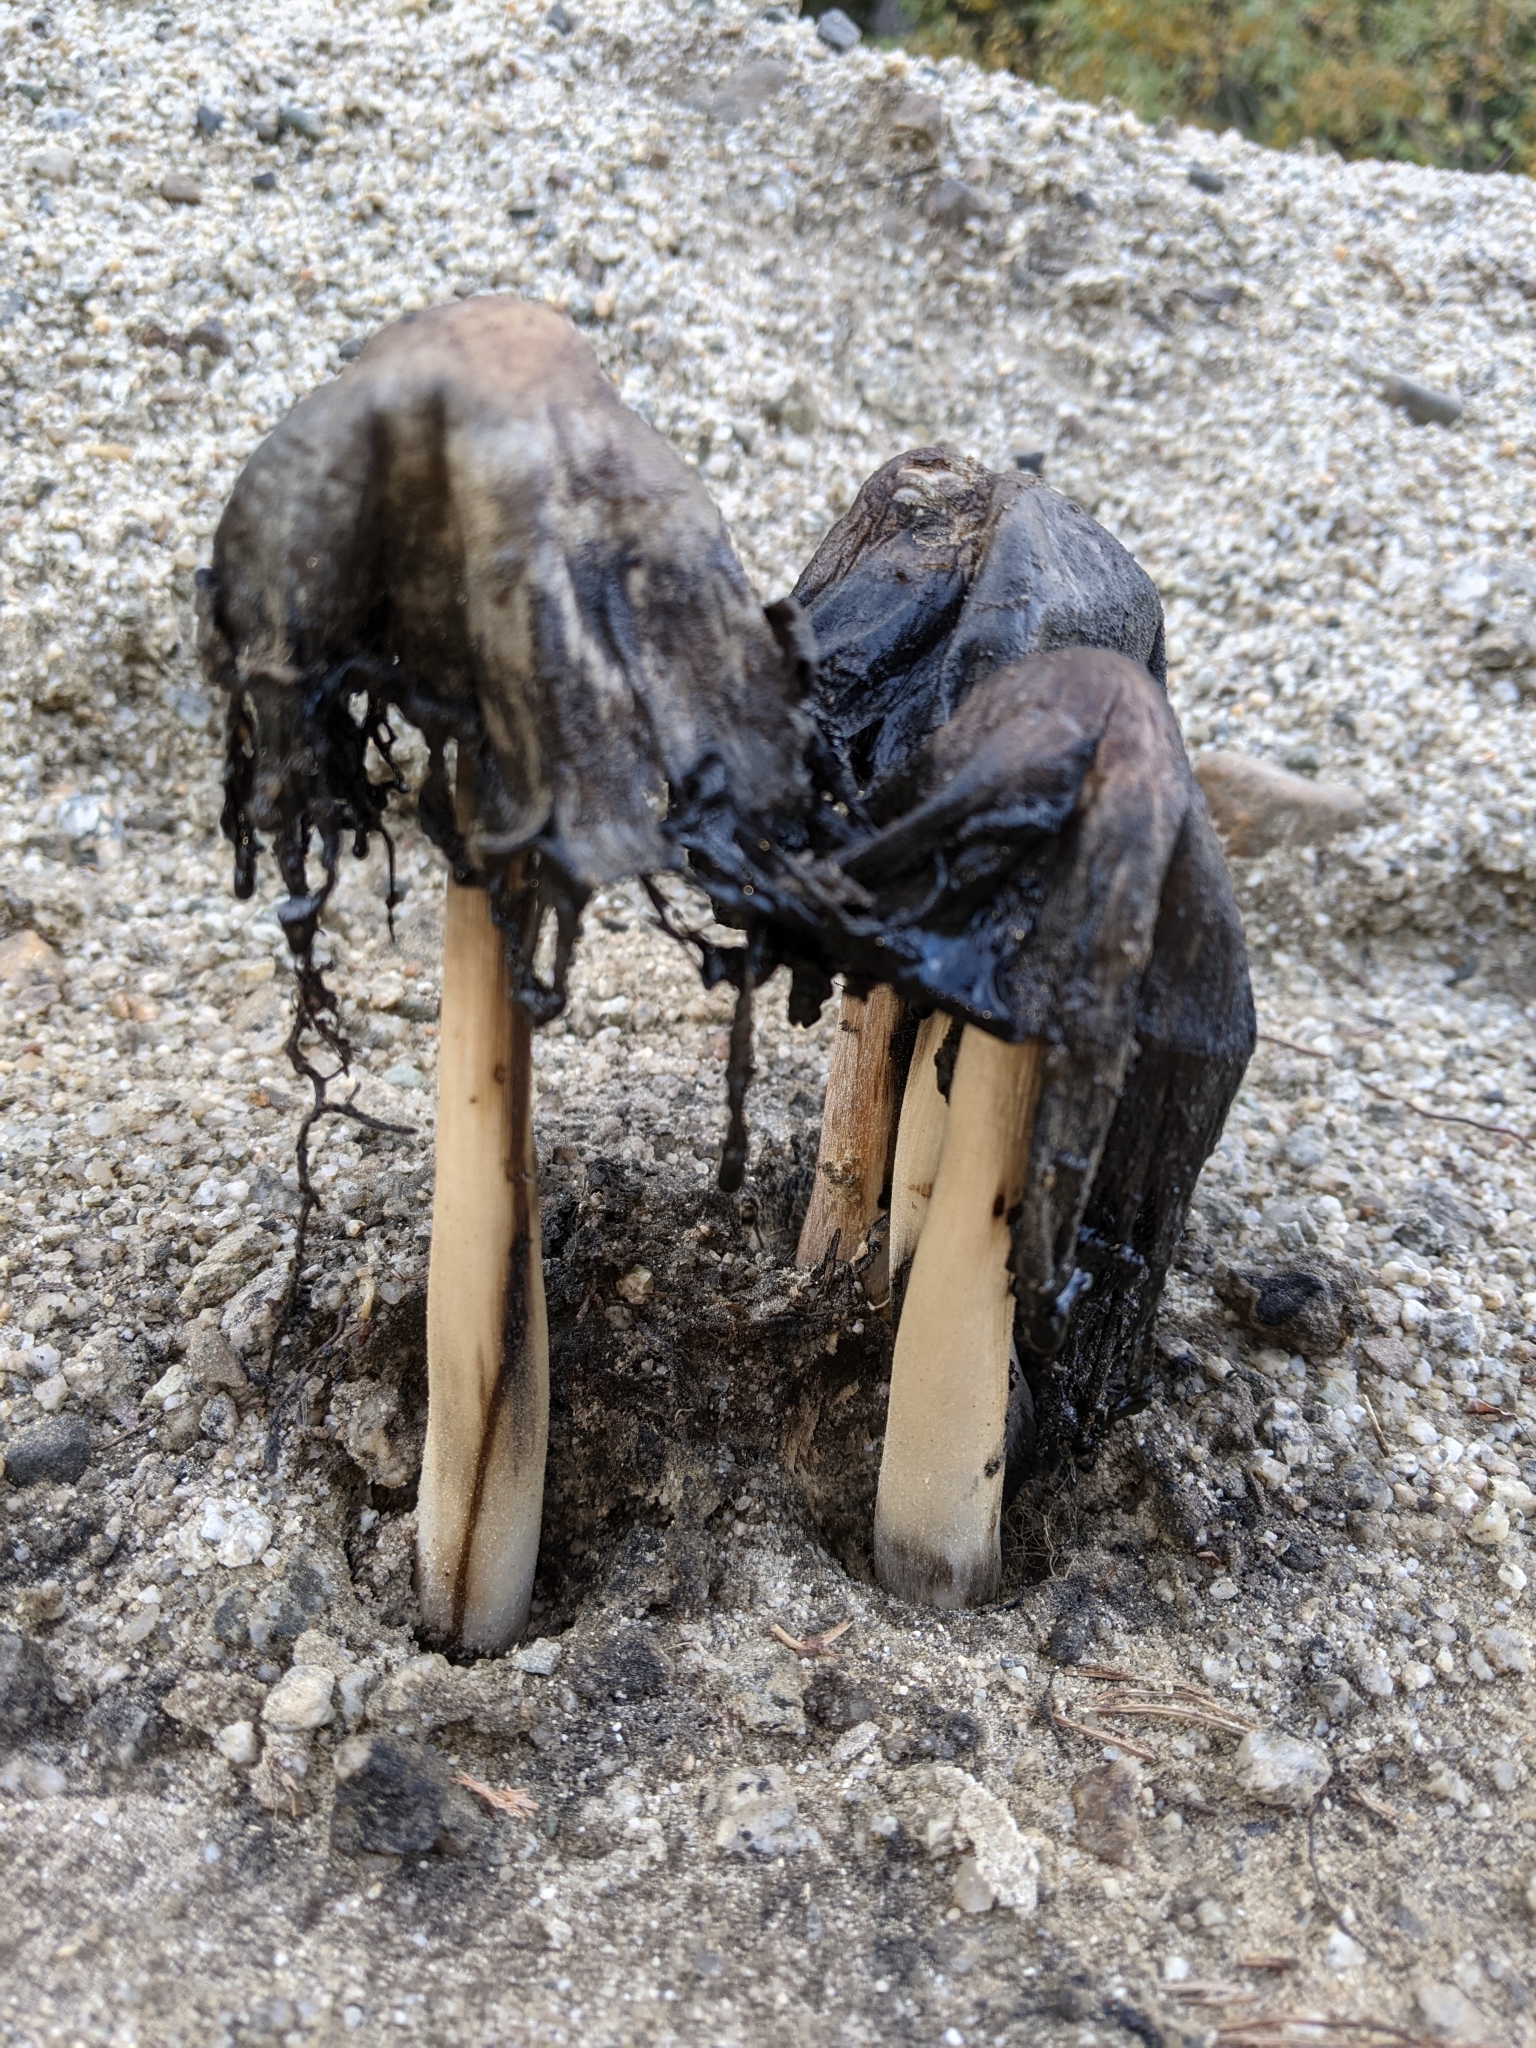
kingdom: Fungi
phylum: Basidiomycota
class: Agaricomycetes
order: Agaricales
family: Agaricaceae
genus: Coprinus
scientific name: Coprinus comatus
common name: Lawyer's wig
